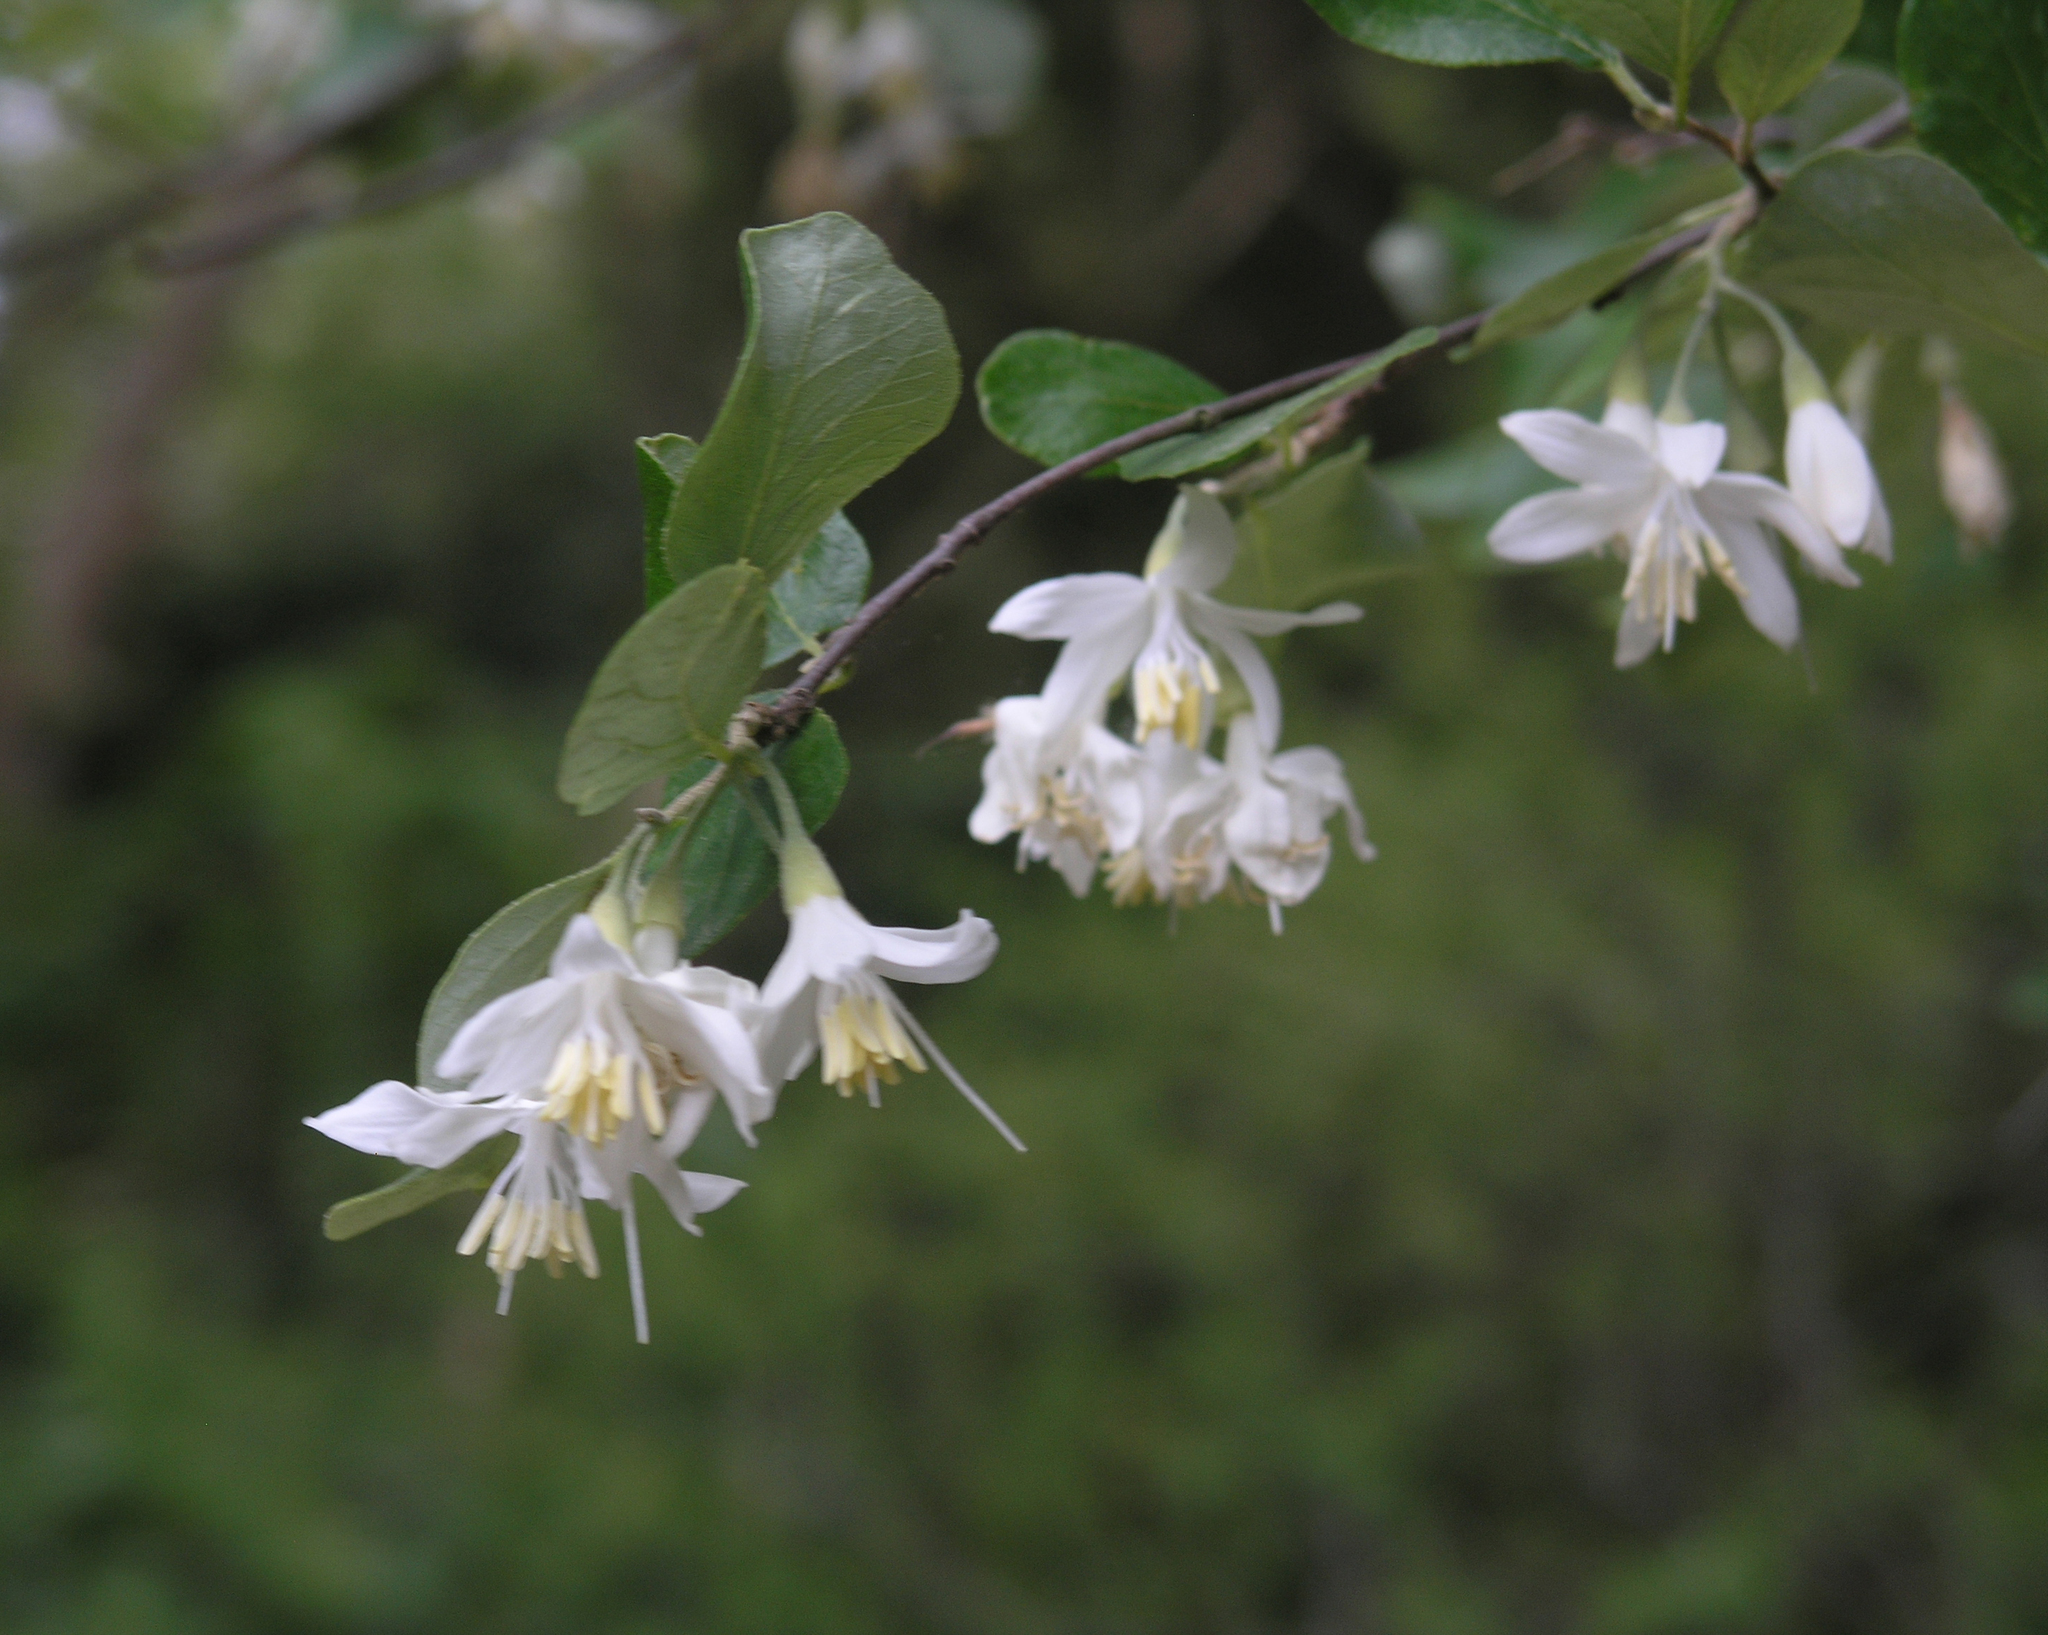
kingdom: Plantae
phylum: Tracheophyta
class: Magnoliopsida
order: Ericales
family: Styracaceae
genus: Styrax
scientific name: Styrax officinalis
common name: Storax
